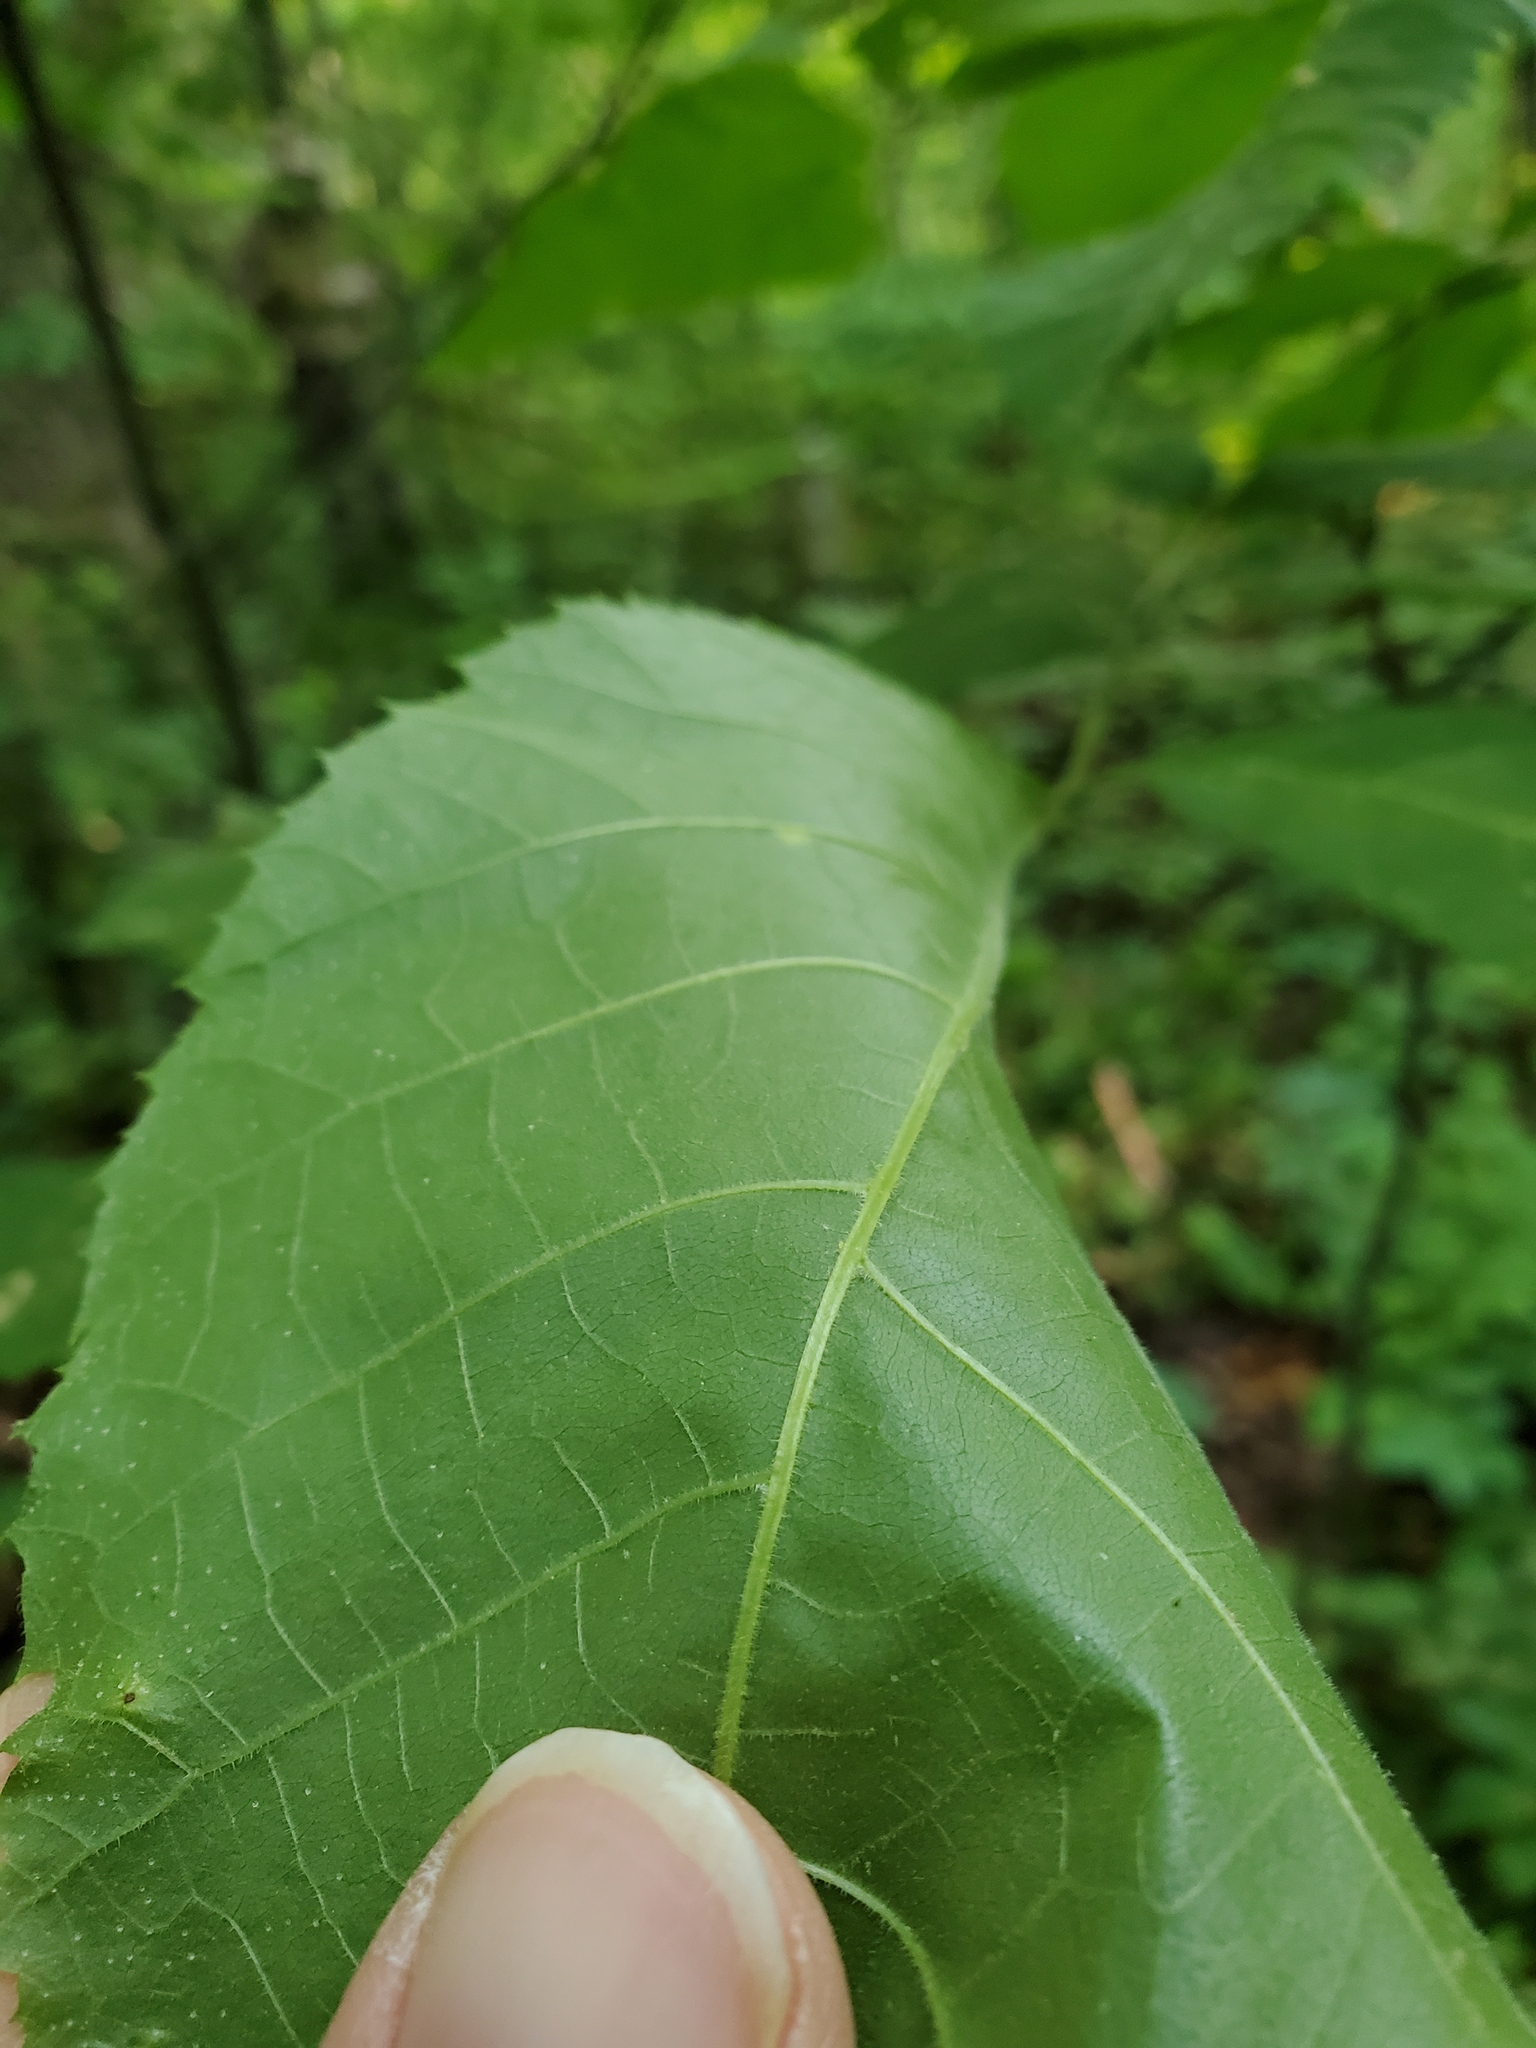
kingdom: Plantae
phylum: Tracheophyta
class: Magnoliopsida
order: Fagales
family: Juglandaceae
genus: Carya
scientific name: Carya cordiformis
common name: Bitternut hickory
